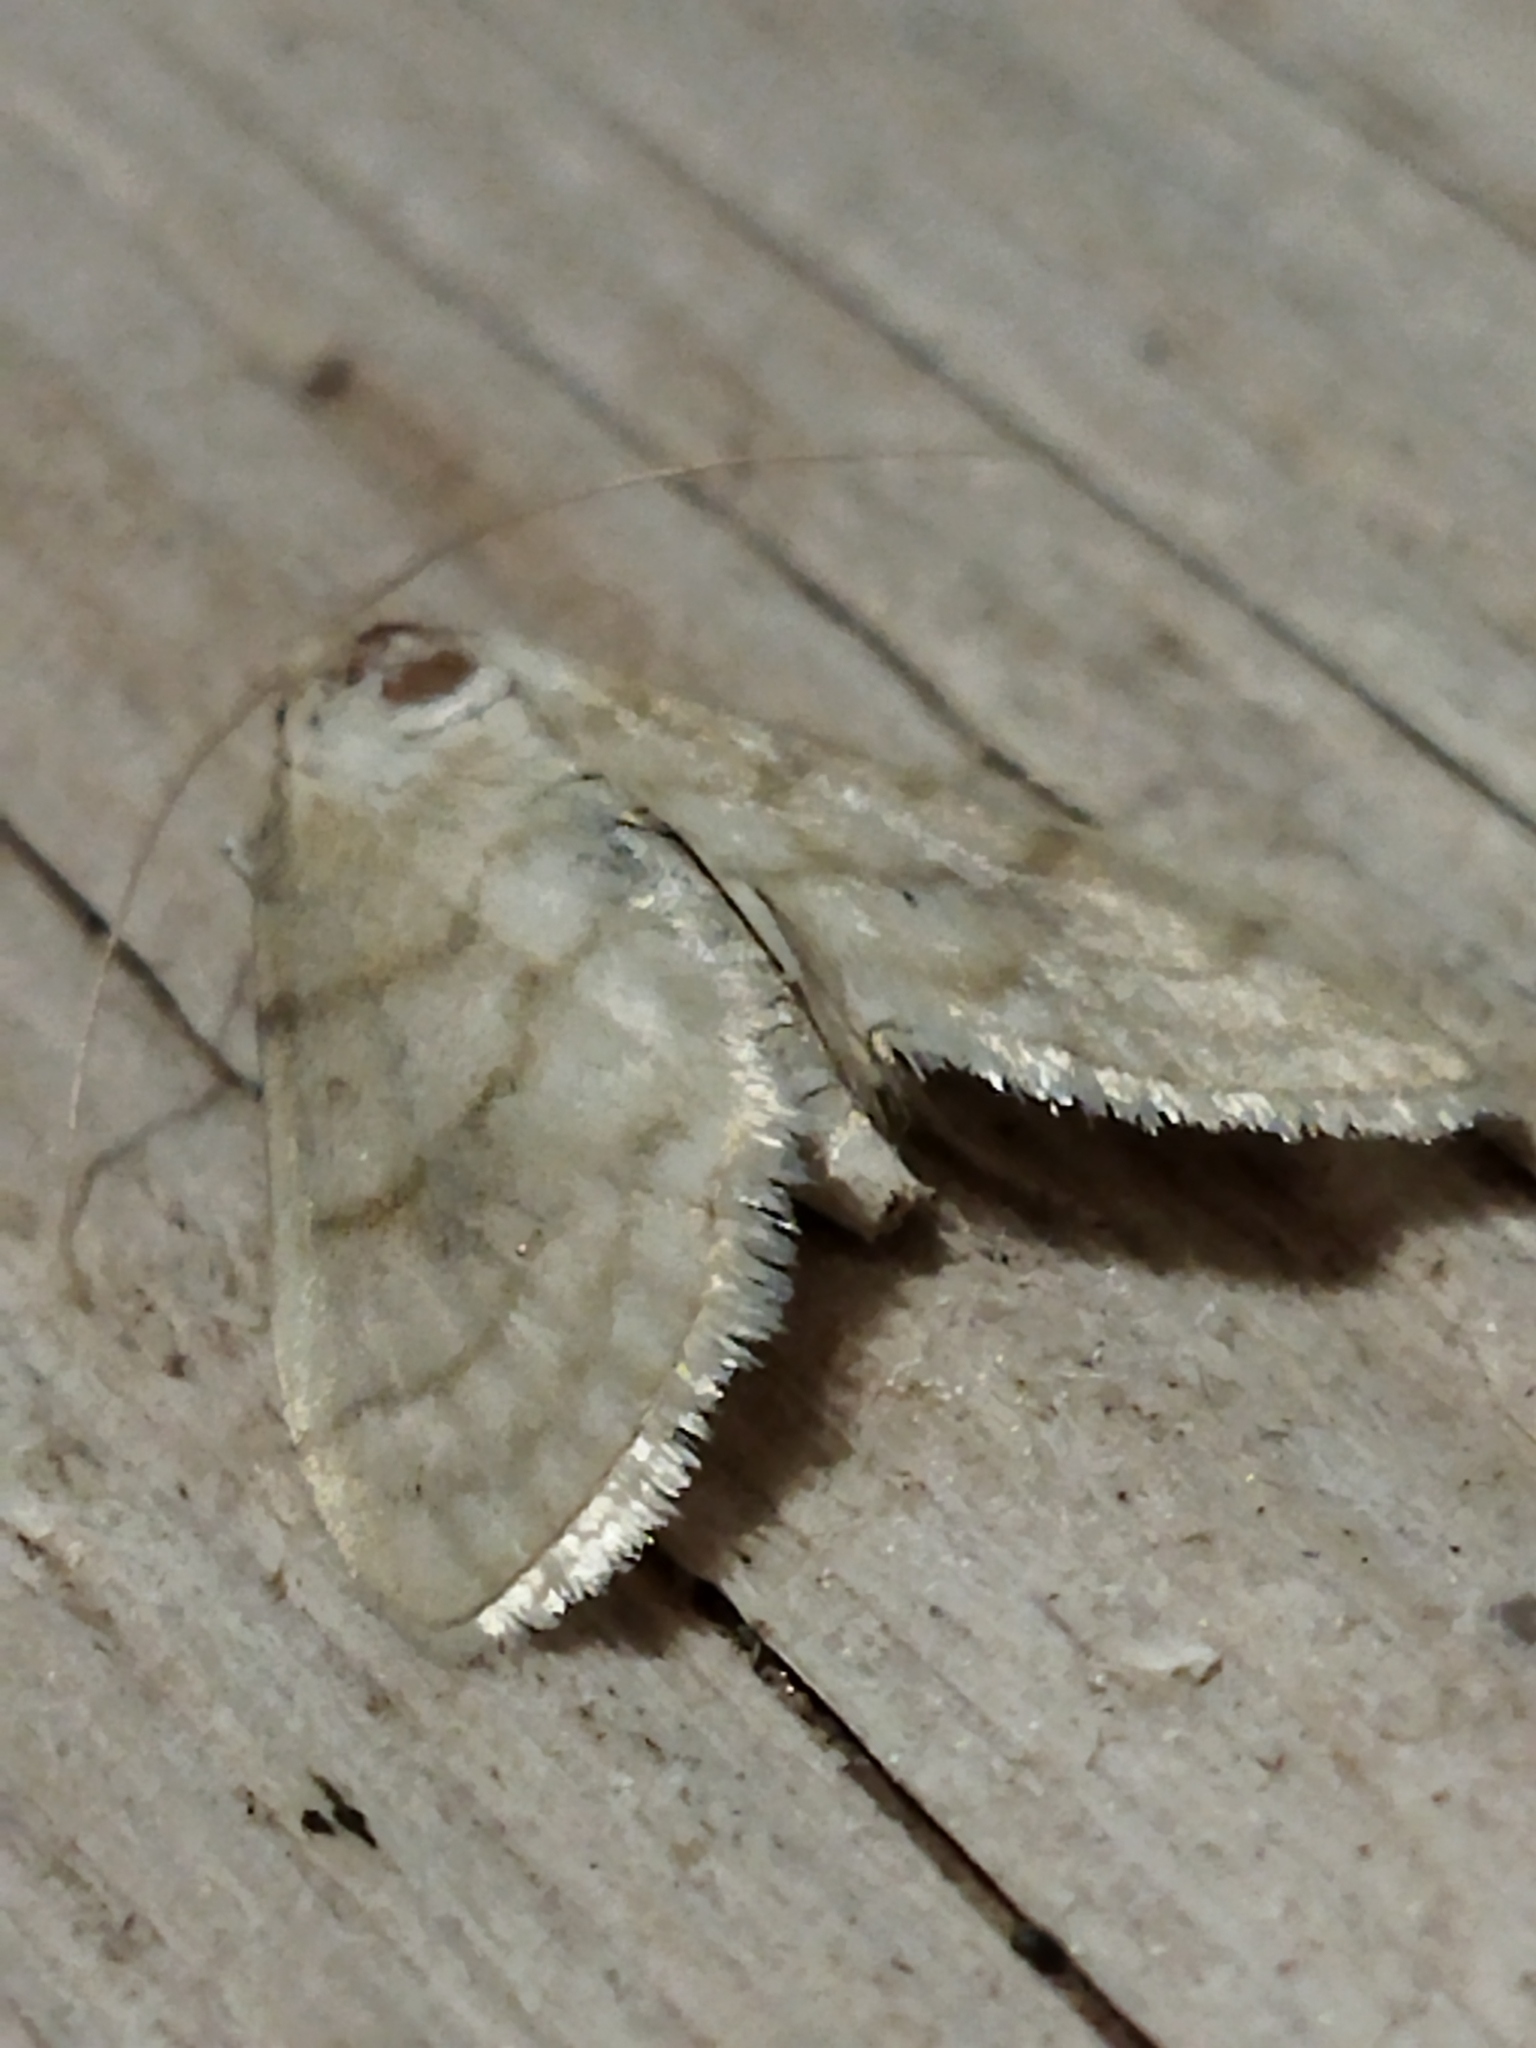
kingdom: Animalia
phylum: Arthropoda
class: Insecta
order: Lepidoptera
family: Crambidae
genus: Paracorsia
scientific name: Paracorsia repandalis
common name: Mullein moth
